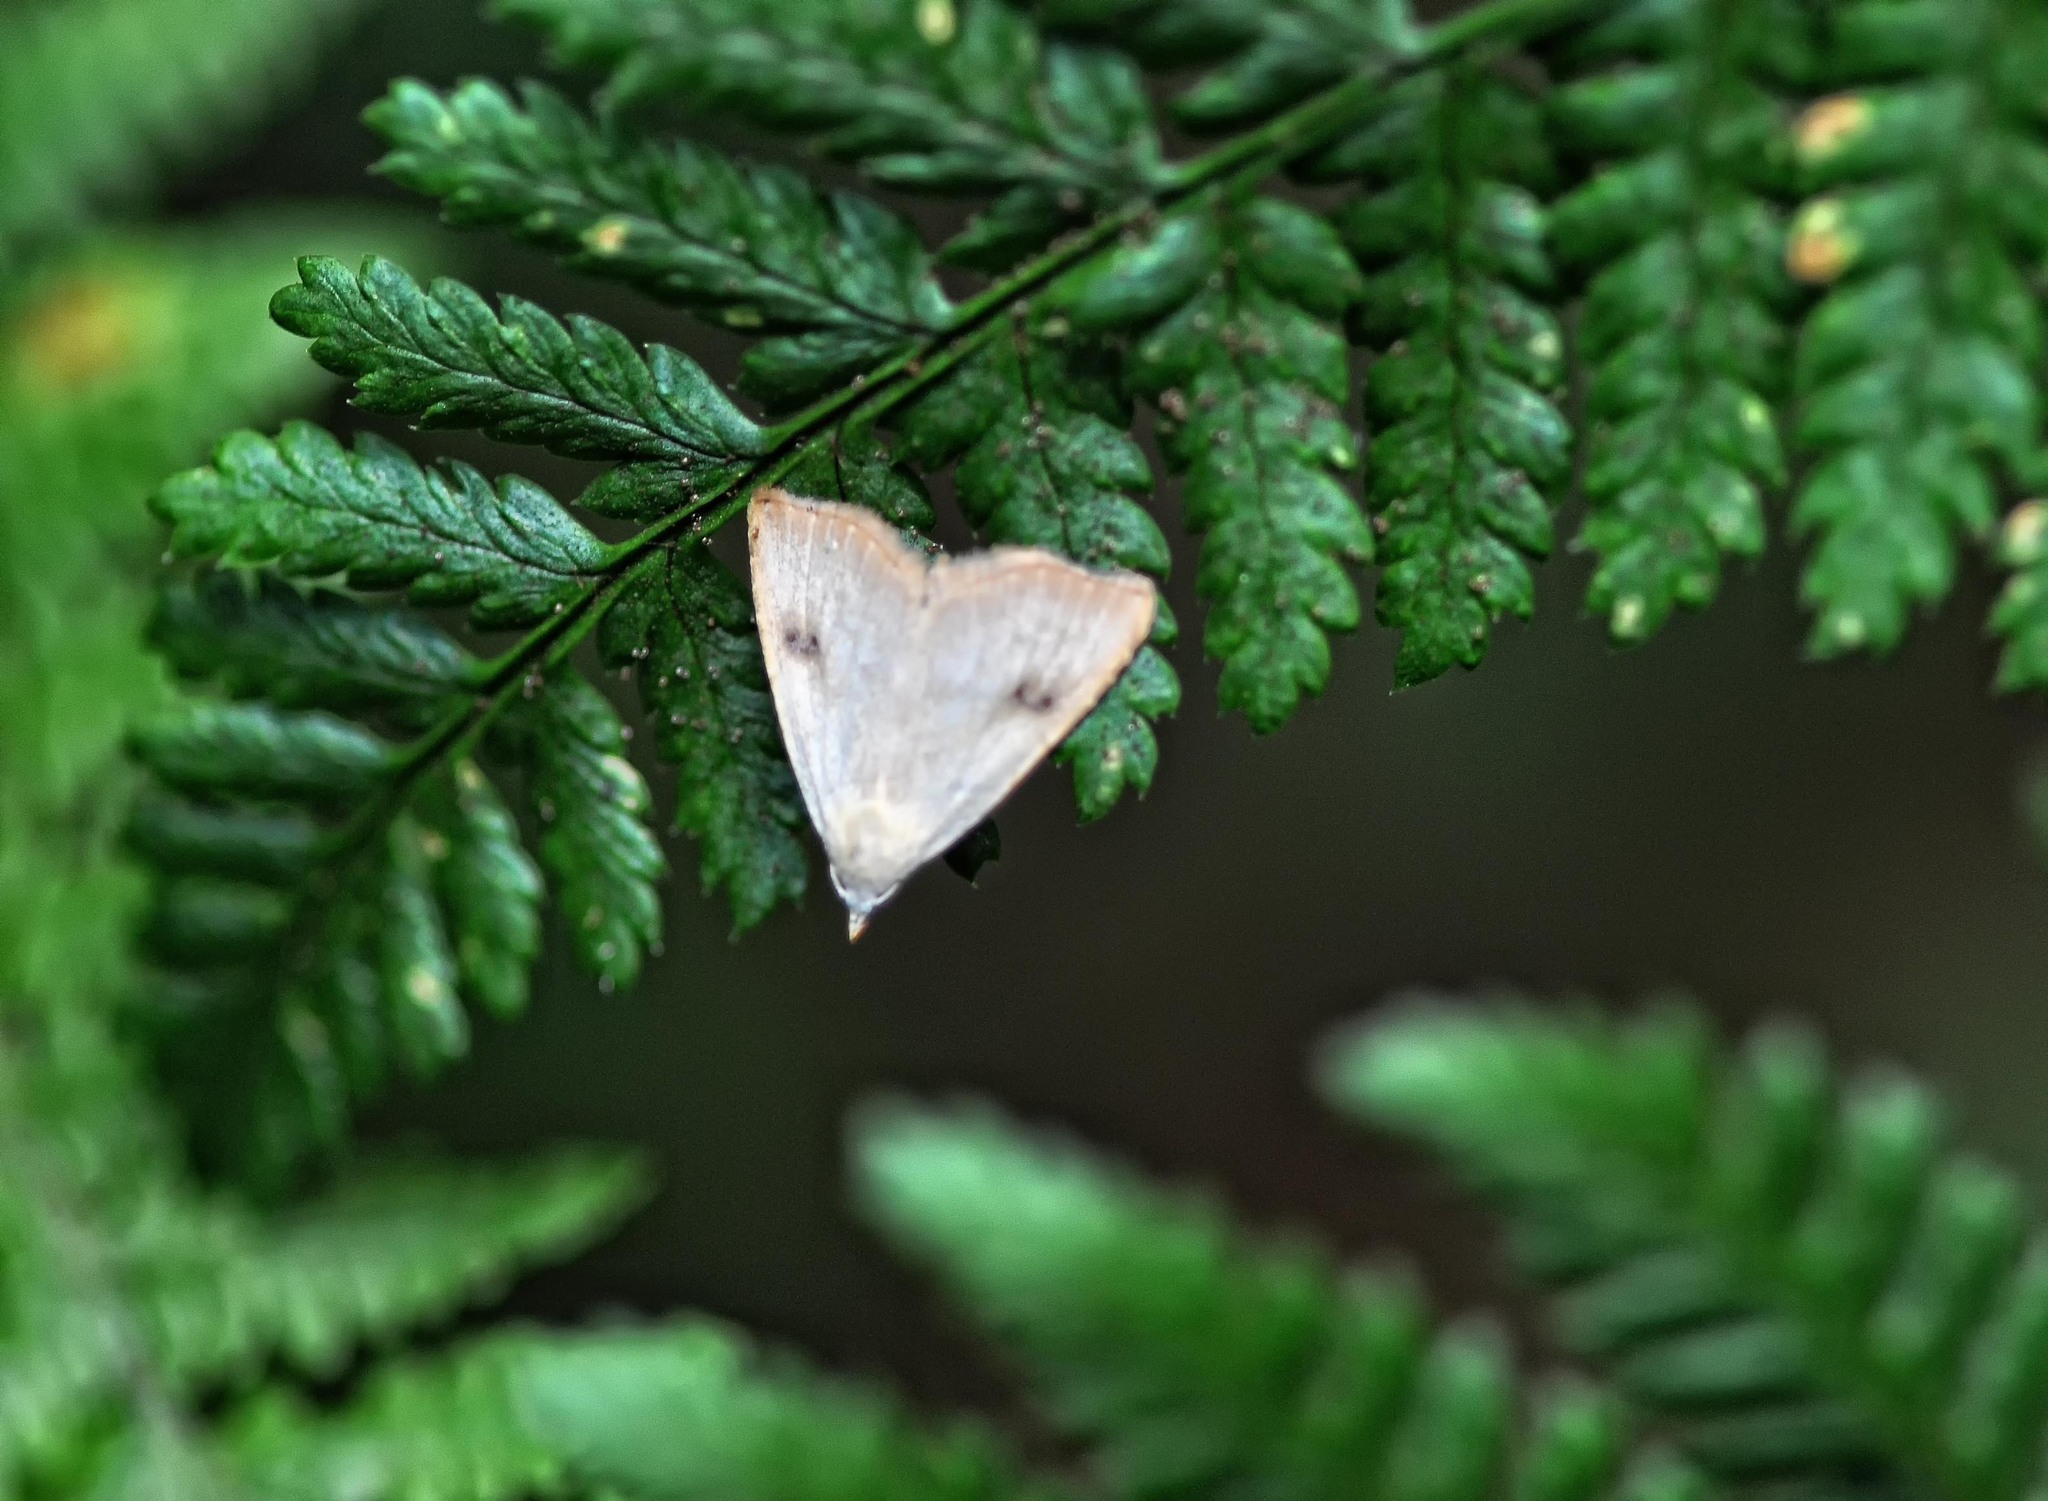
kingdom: Animalia
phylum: Arthropoda
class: Insecta
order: Lepidoptera
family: Erebidae
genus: Rivula
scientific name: Rivula sericealis
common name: Straw dot
